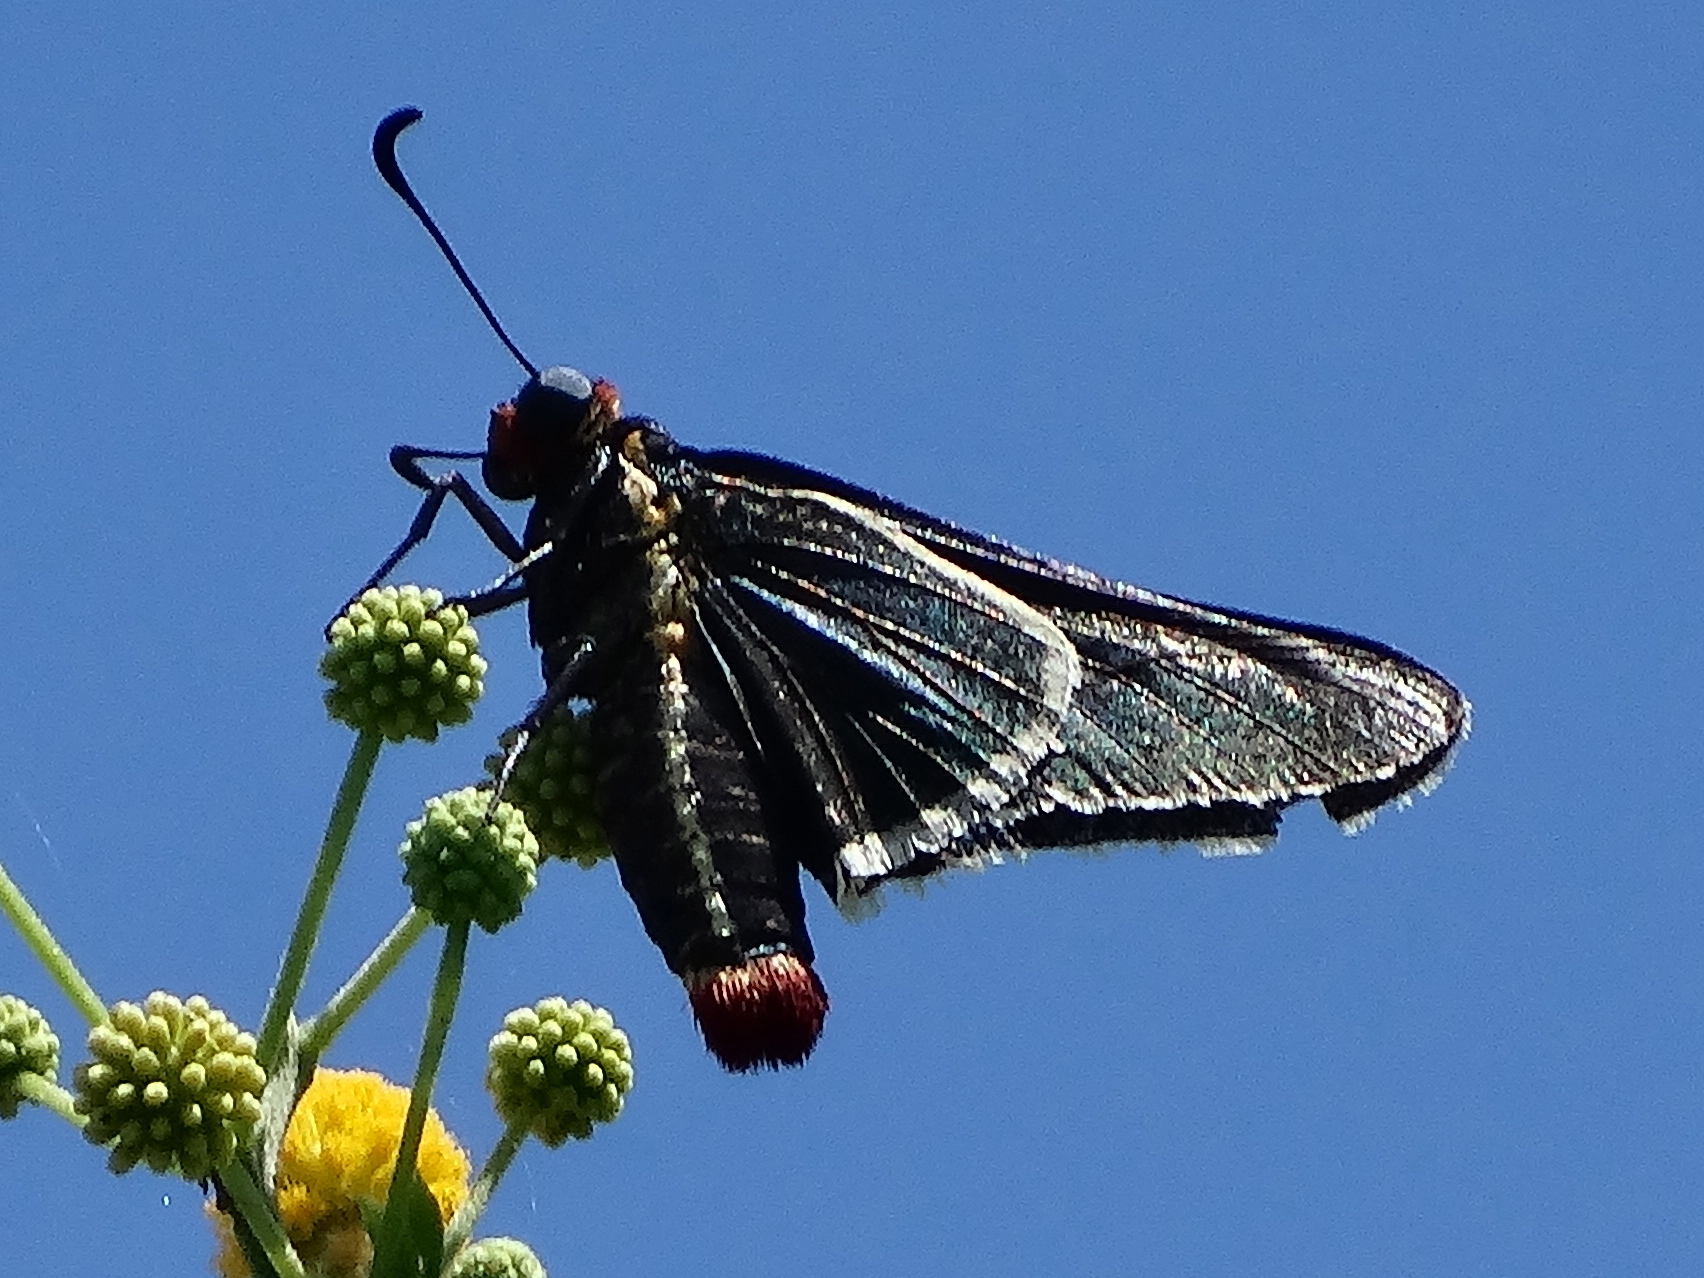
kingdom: Animalia
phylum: Arthropoda
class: Insecta
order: Lepidoptera
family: Hesperiidae
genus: Mysoria
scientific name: Mysoria affinis
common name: Red-collared firetip
